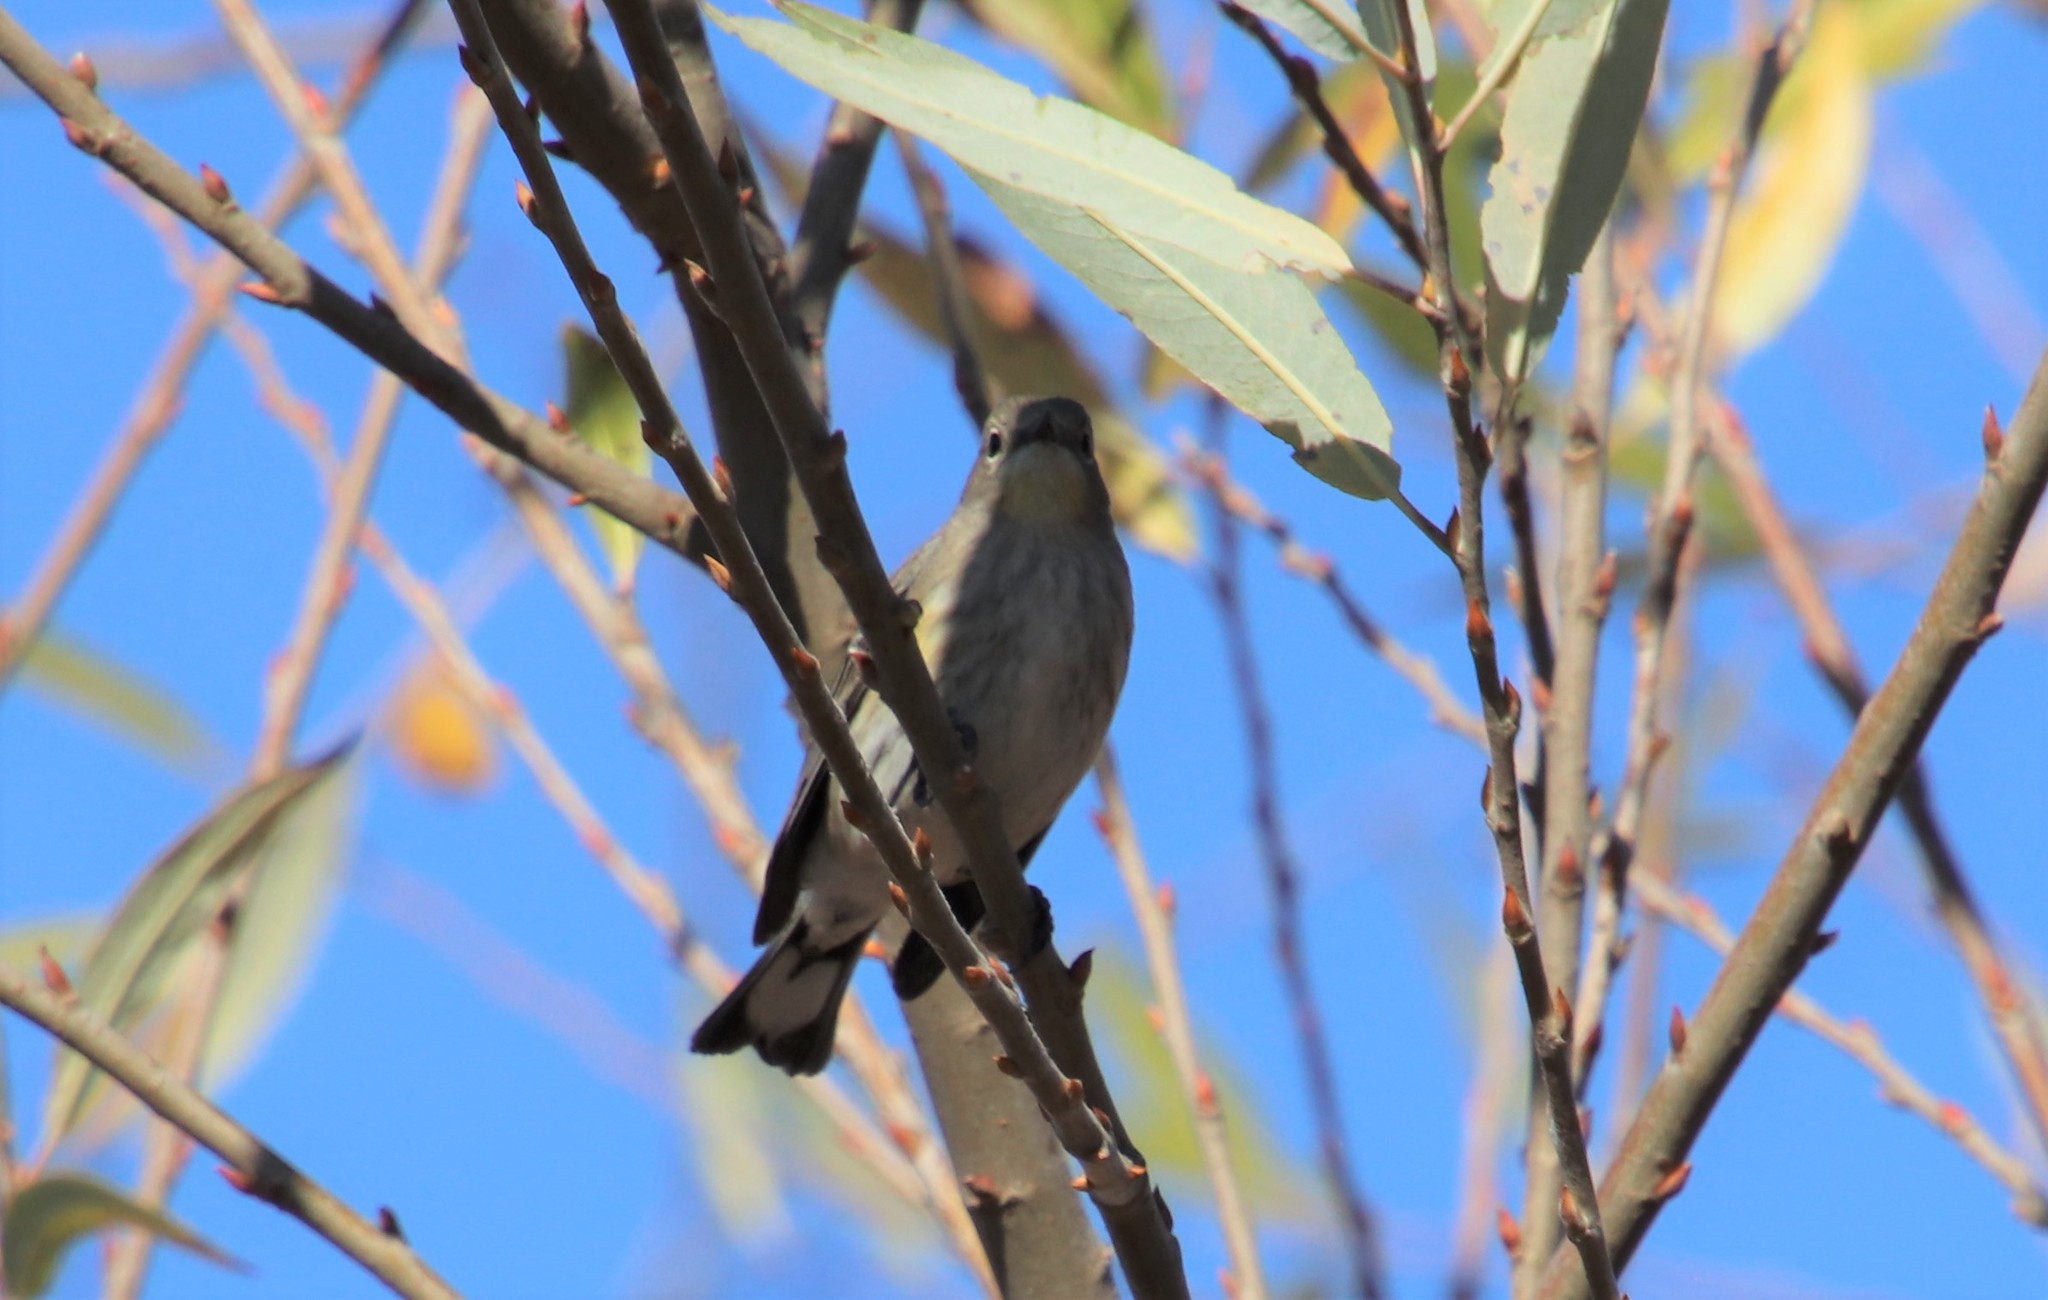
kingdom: Animalia
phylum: Chordata
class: Aves
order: Passeriformes
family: Parulidae
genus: Setophaga
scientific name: Setophaga auduboni
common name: Audubon's warbler
